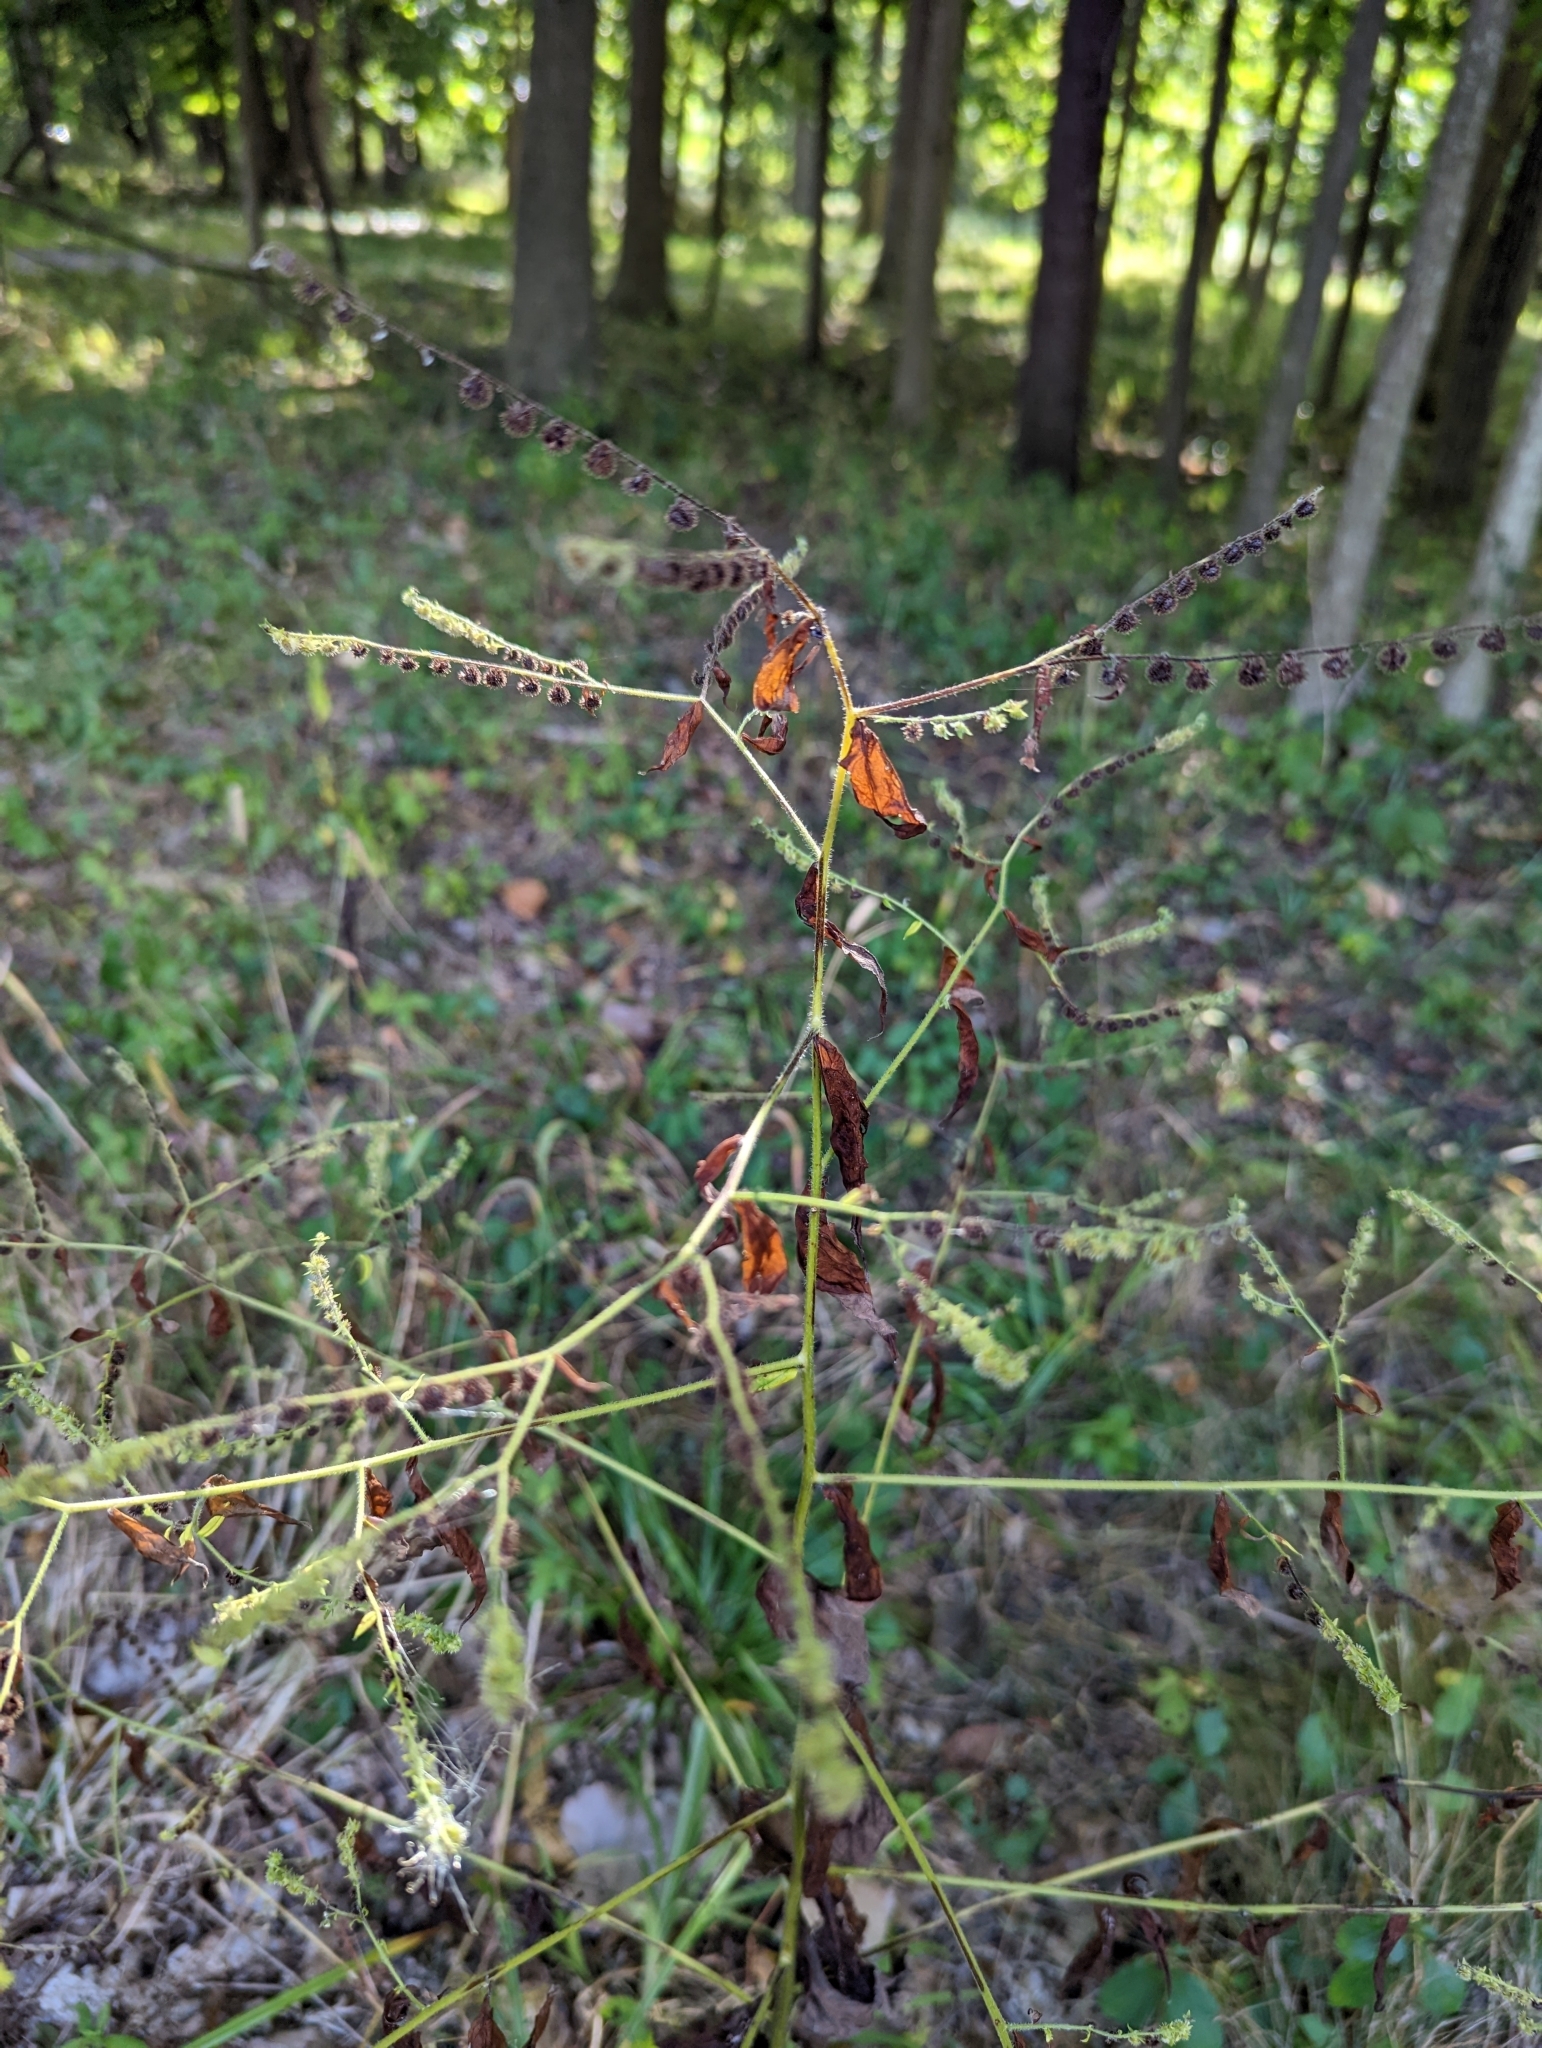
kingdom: Plantae
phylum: Tracheophyta
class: Magnoliopsida
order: Boraginales
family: Boraginaceae
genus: Hackelia
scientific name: Hackelia virginiana
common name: Beggar's-lice
